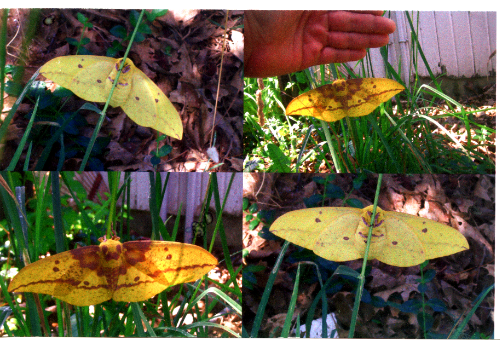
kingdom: Animalia
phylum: Arthropoda
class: Insecta
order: Lepidoptera
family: Saturniidae
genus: Eacles
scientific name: Eacles imperialis
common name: Imperial moth
